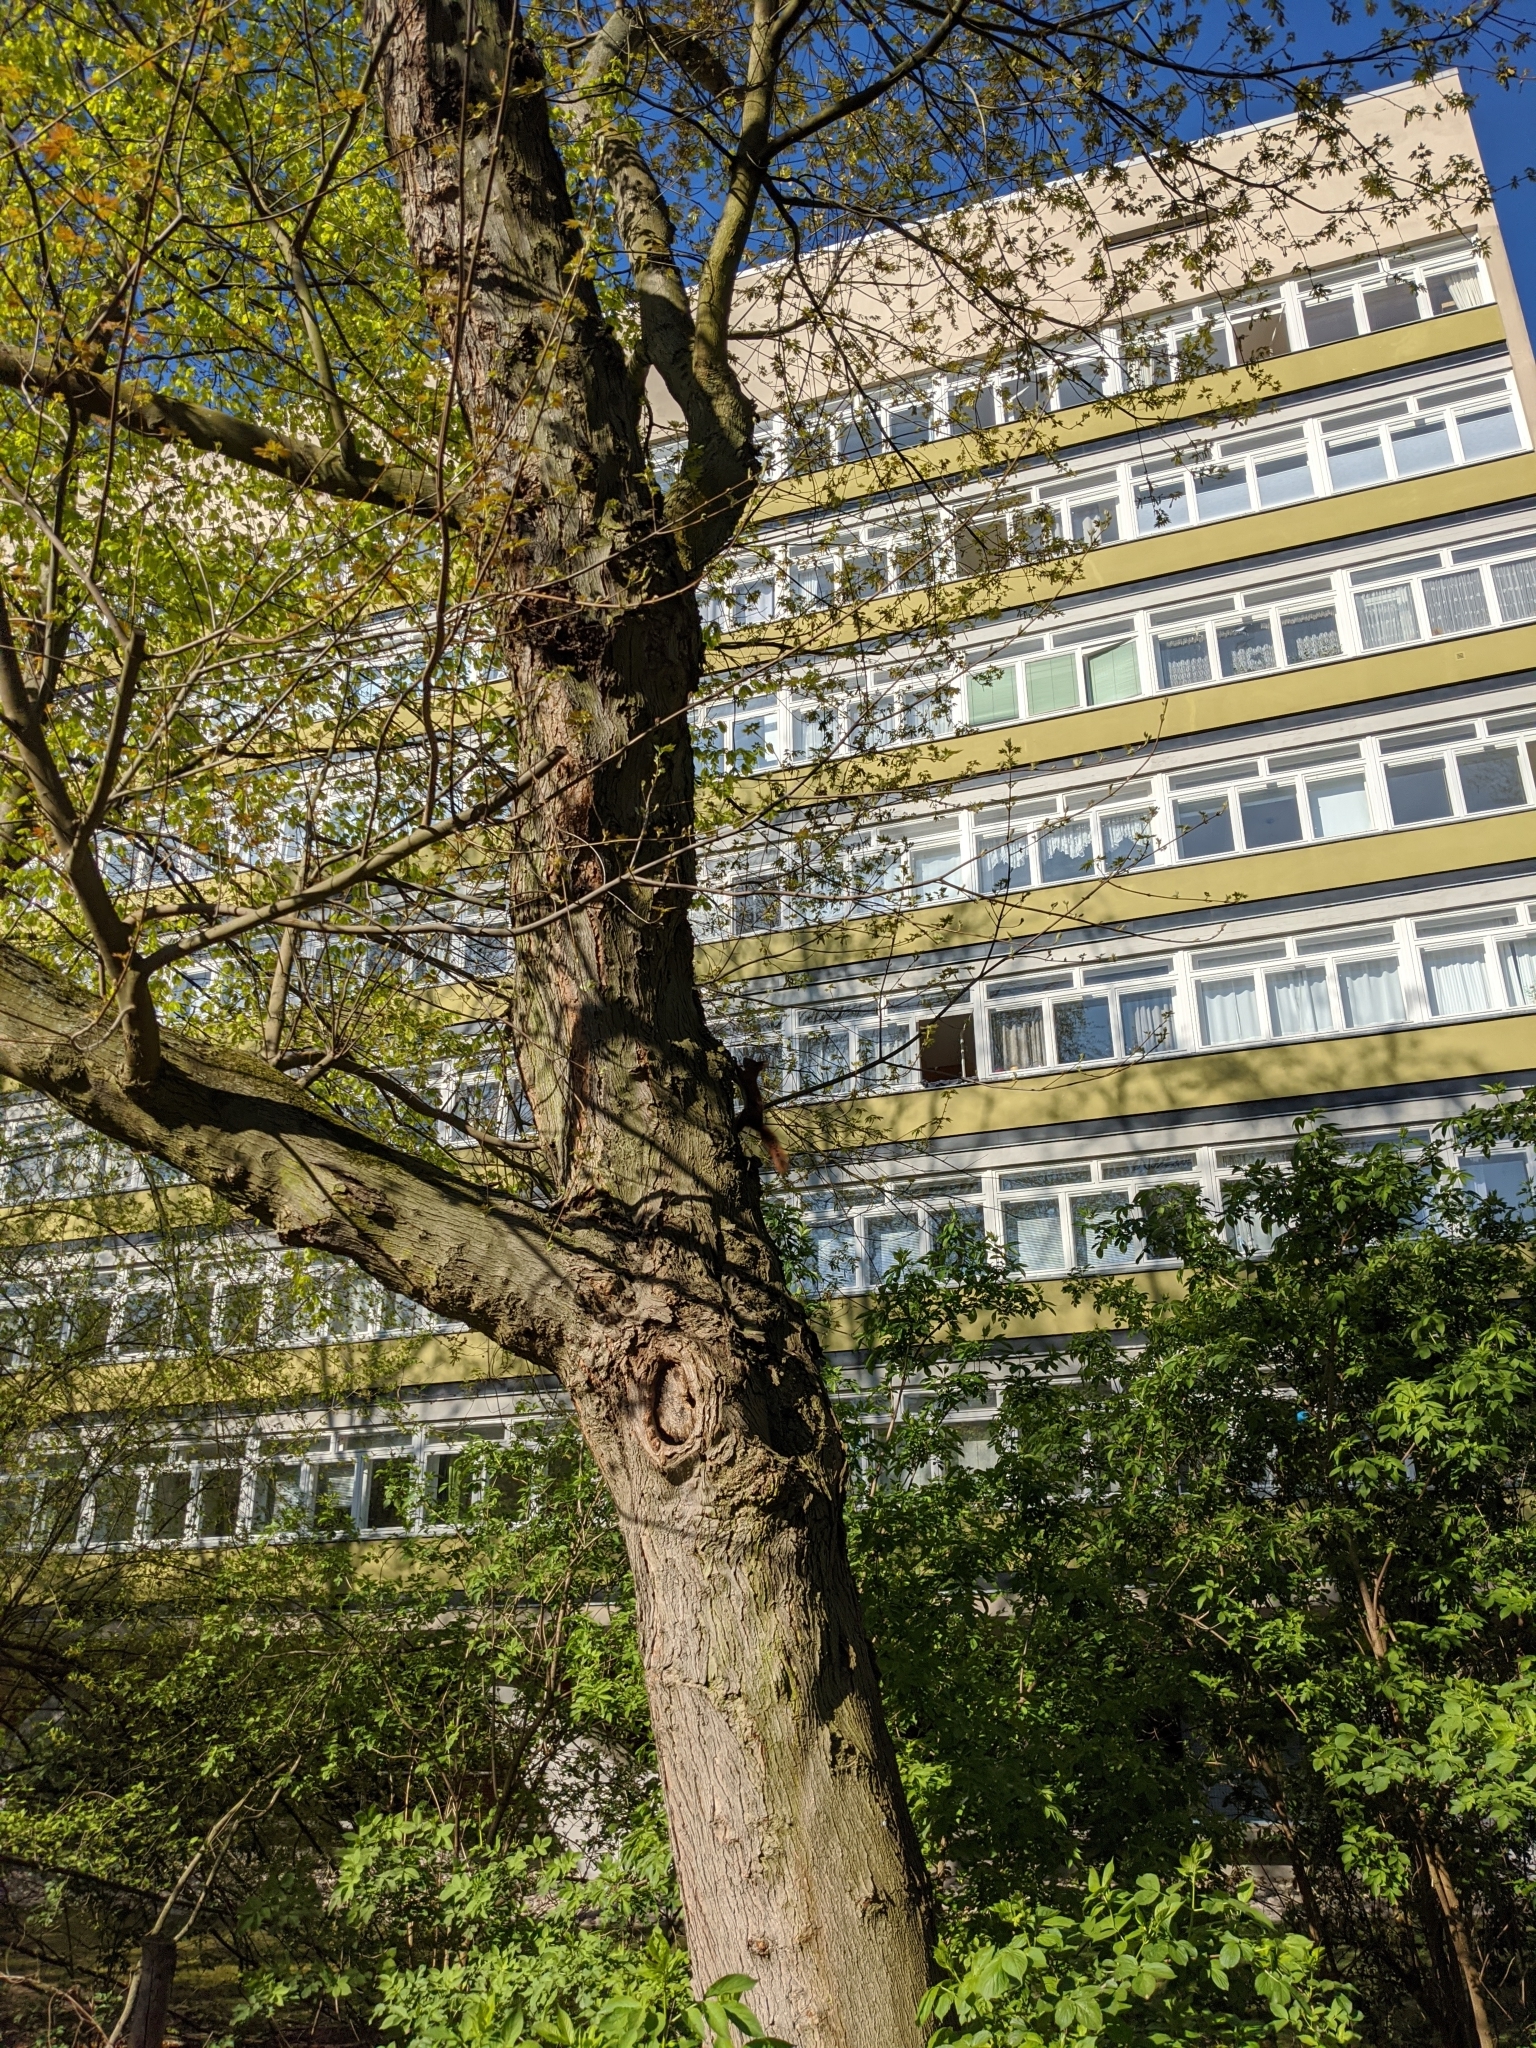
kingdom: Animalia
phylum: Chordata
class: Mammalia
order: Rodentia
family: Sciuridae
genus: Sciurus
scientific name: Sciurus vulgaris
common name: Eurasian red squirrel
